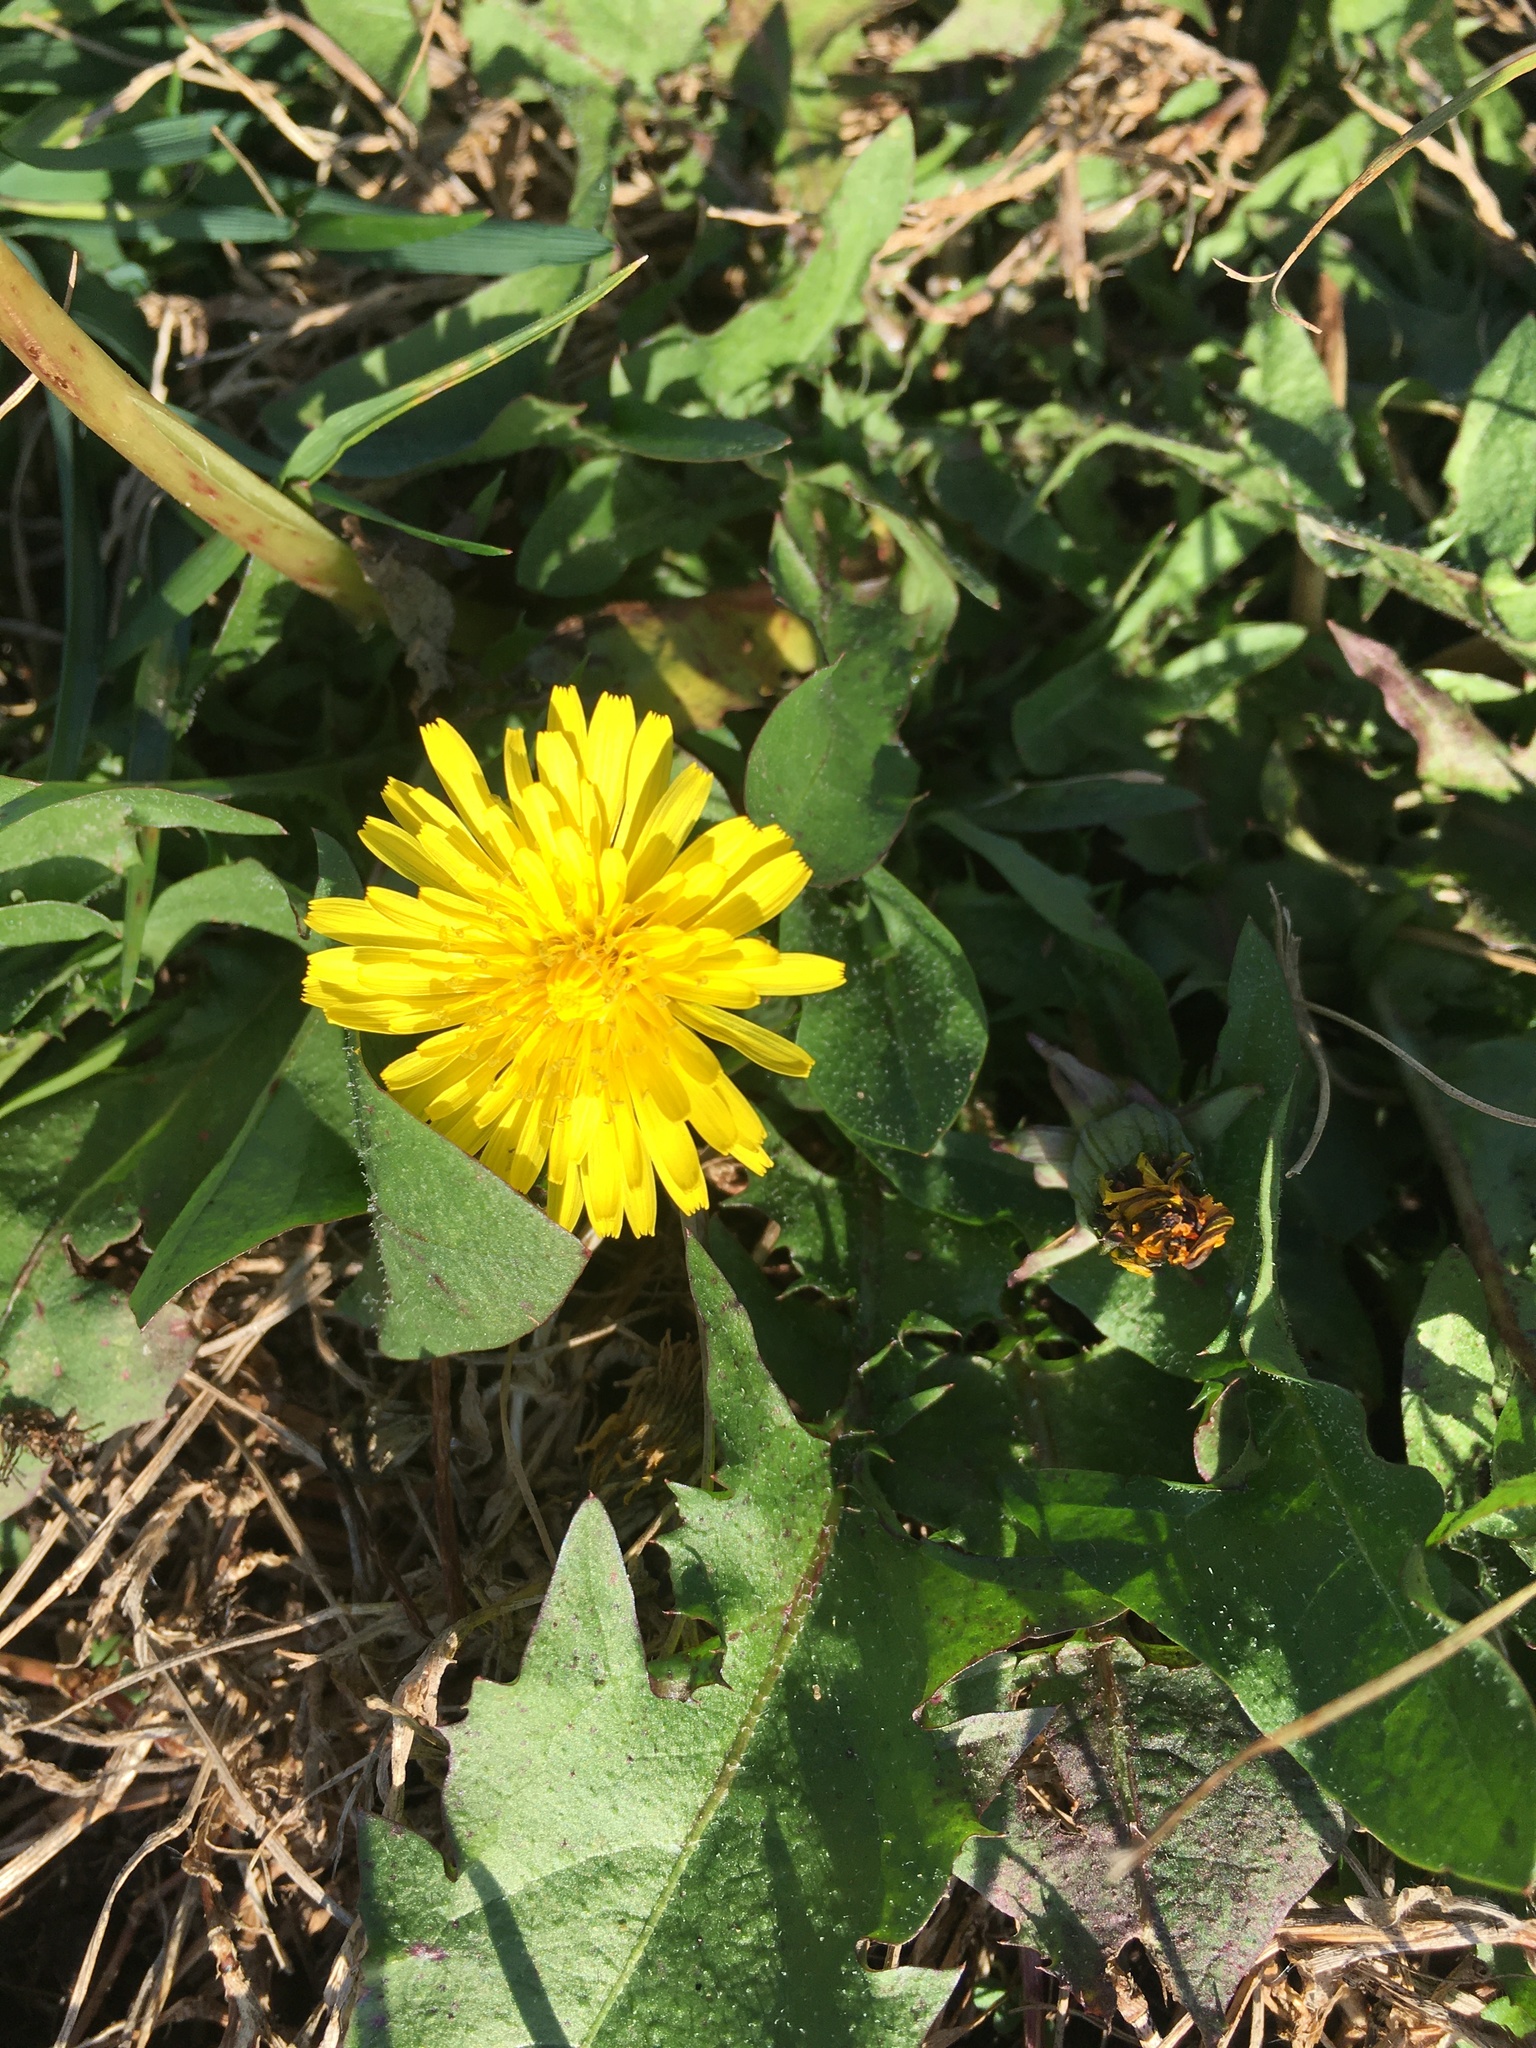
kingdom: Plantae
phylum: Tracheophyta
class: Magnoliopsida
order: Asterales
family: Asteraceae
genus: Taraxacum
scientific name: Taraxacum
